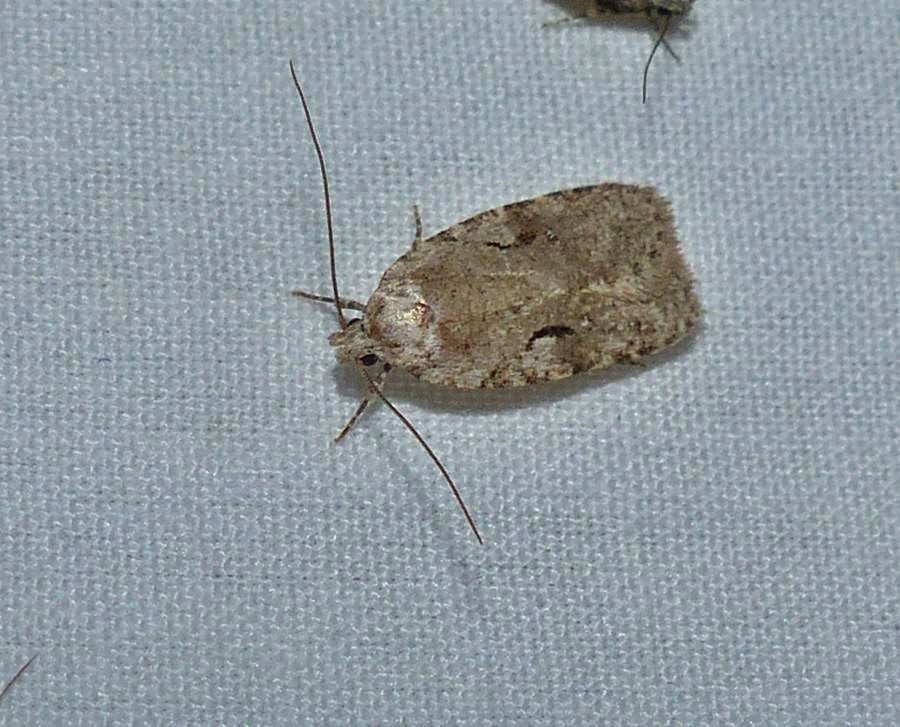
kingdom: Animalia
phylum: Arthropoda
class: Insecta
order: Lepidoptera
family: Depressariidae
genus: Agonopterix
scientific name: Agonopterix curvilineella
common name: Curved-line agonopterix moth
